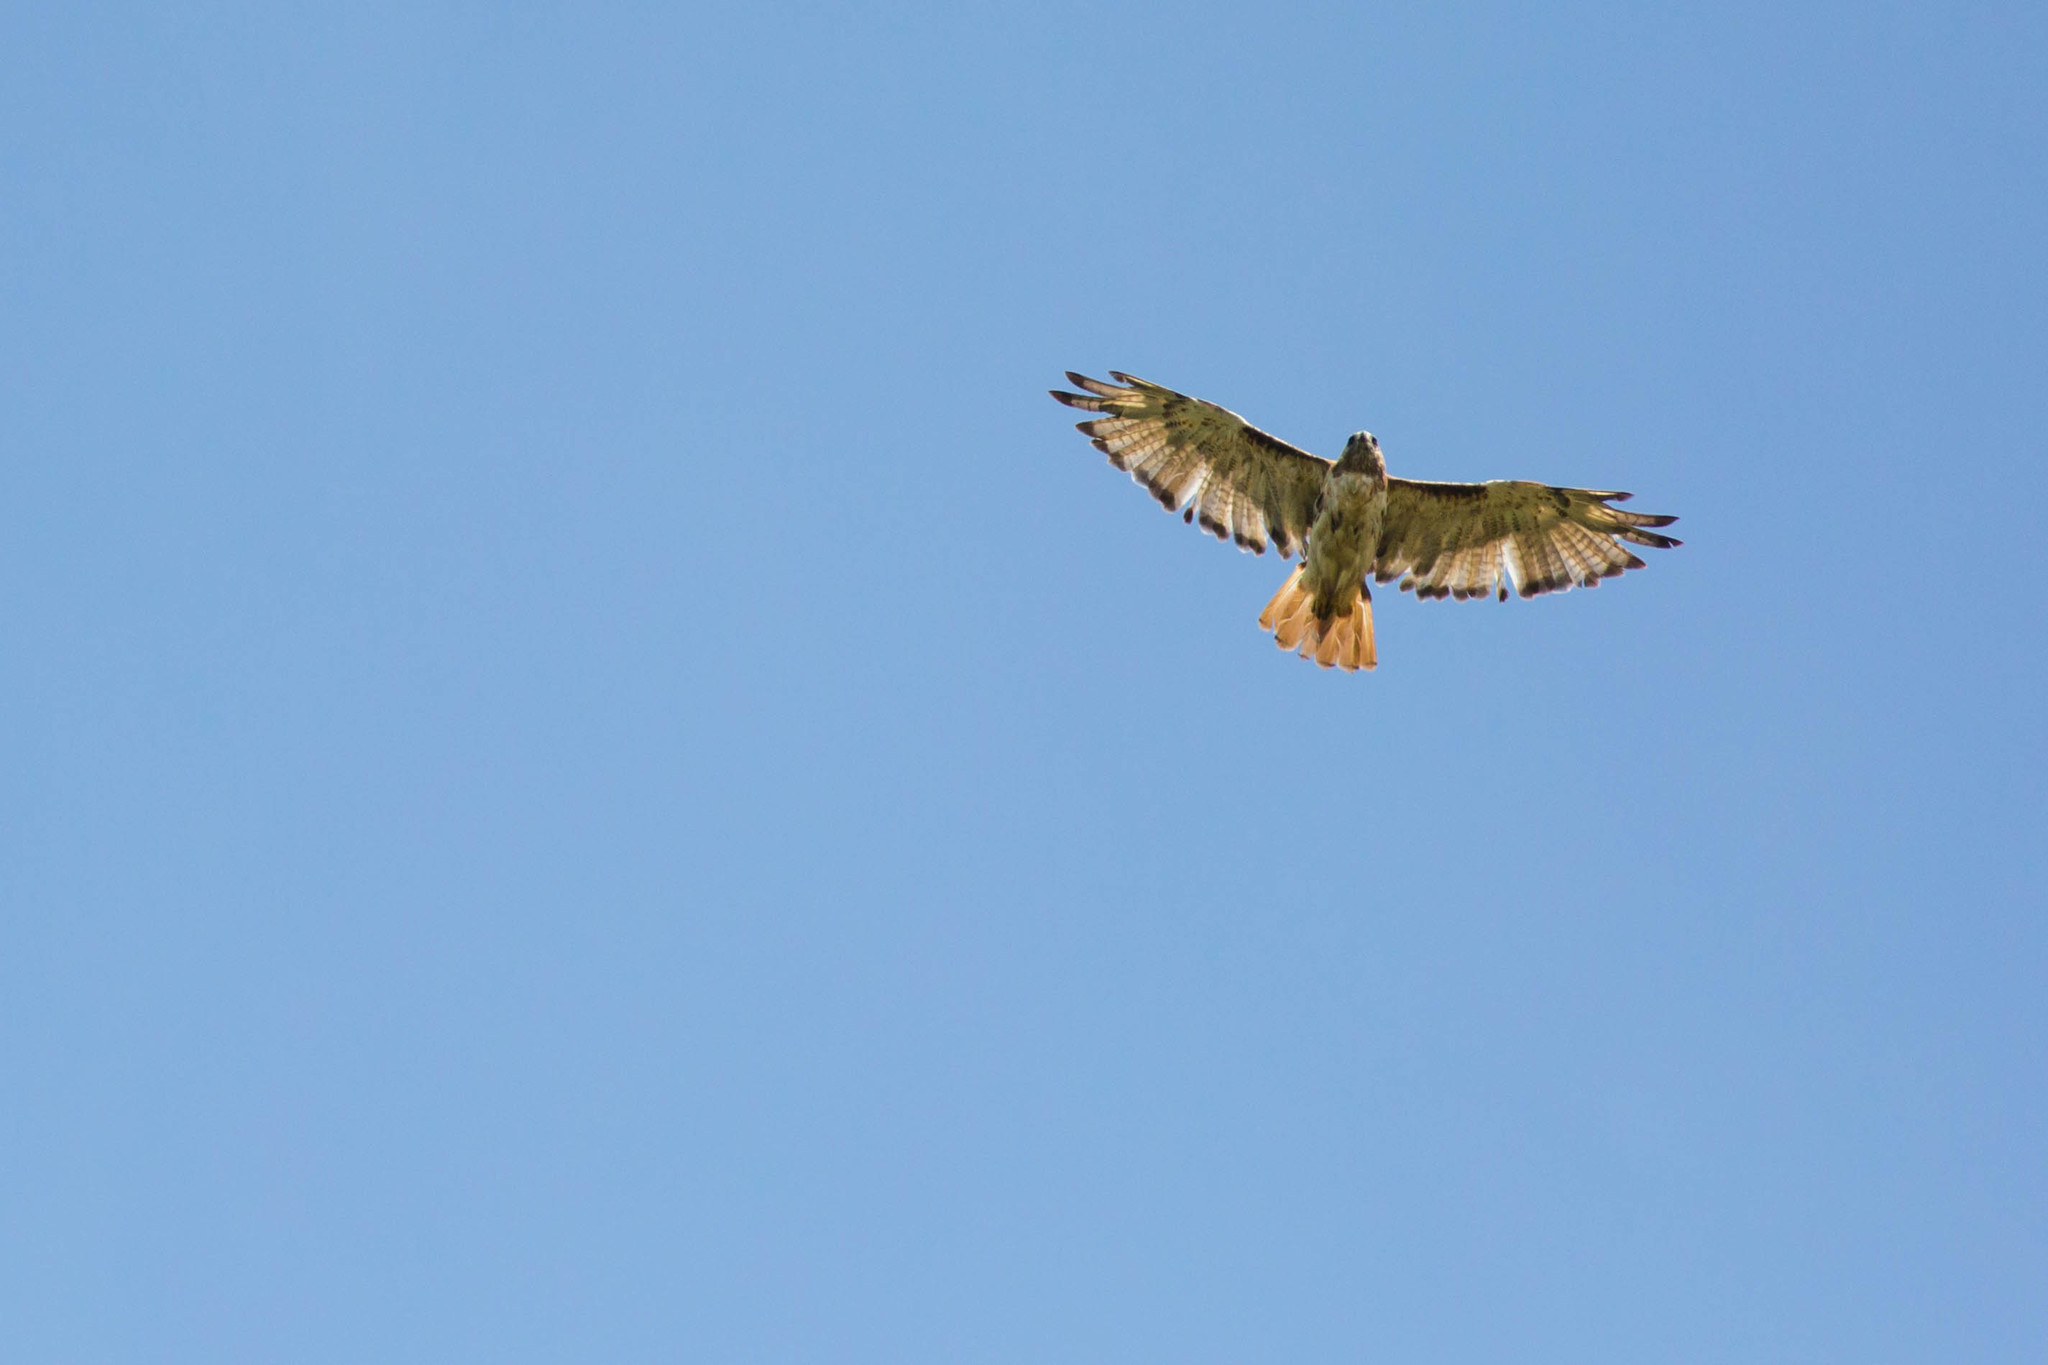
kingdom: Animalia
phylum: Chordata
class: Aves
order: Accipitriformes
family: Accipitridae
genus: Buteo
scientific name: Buteo jamaicensis
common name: Red-tailed hawk
